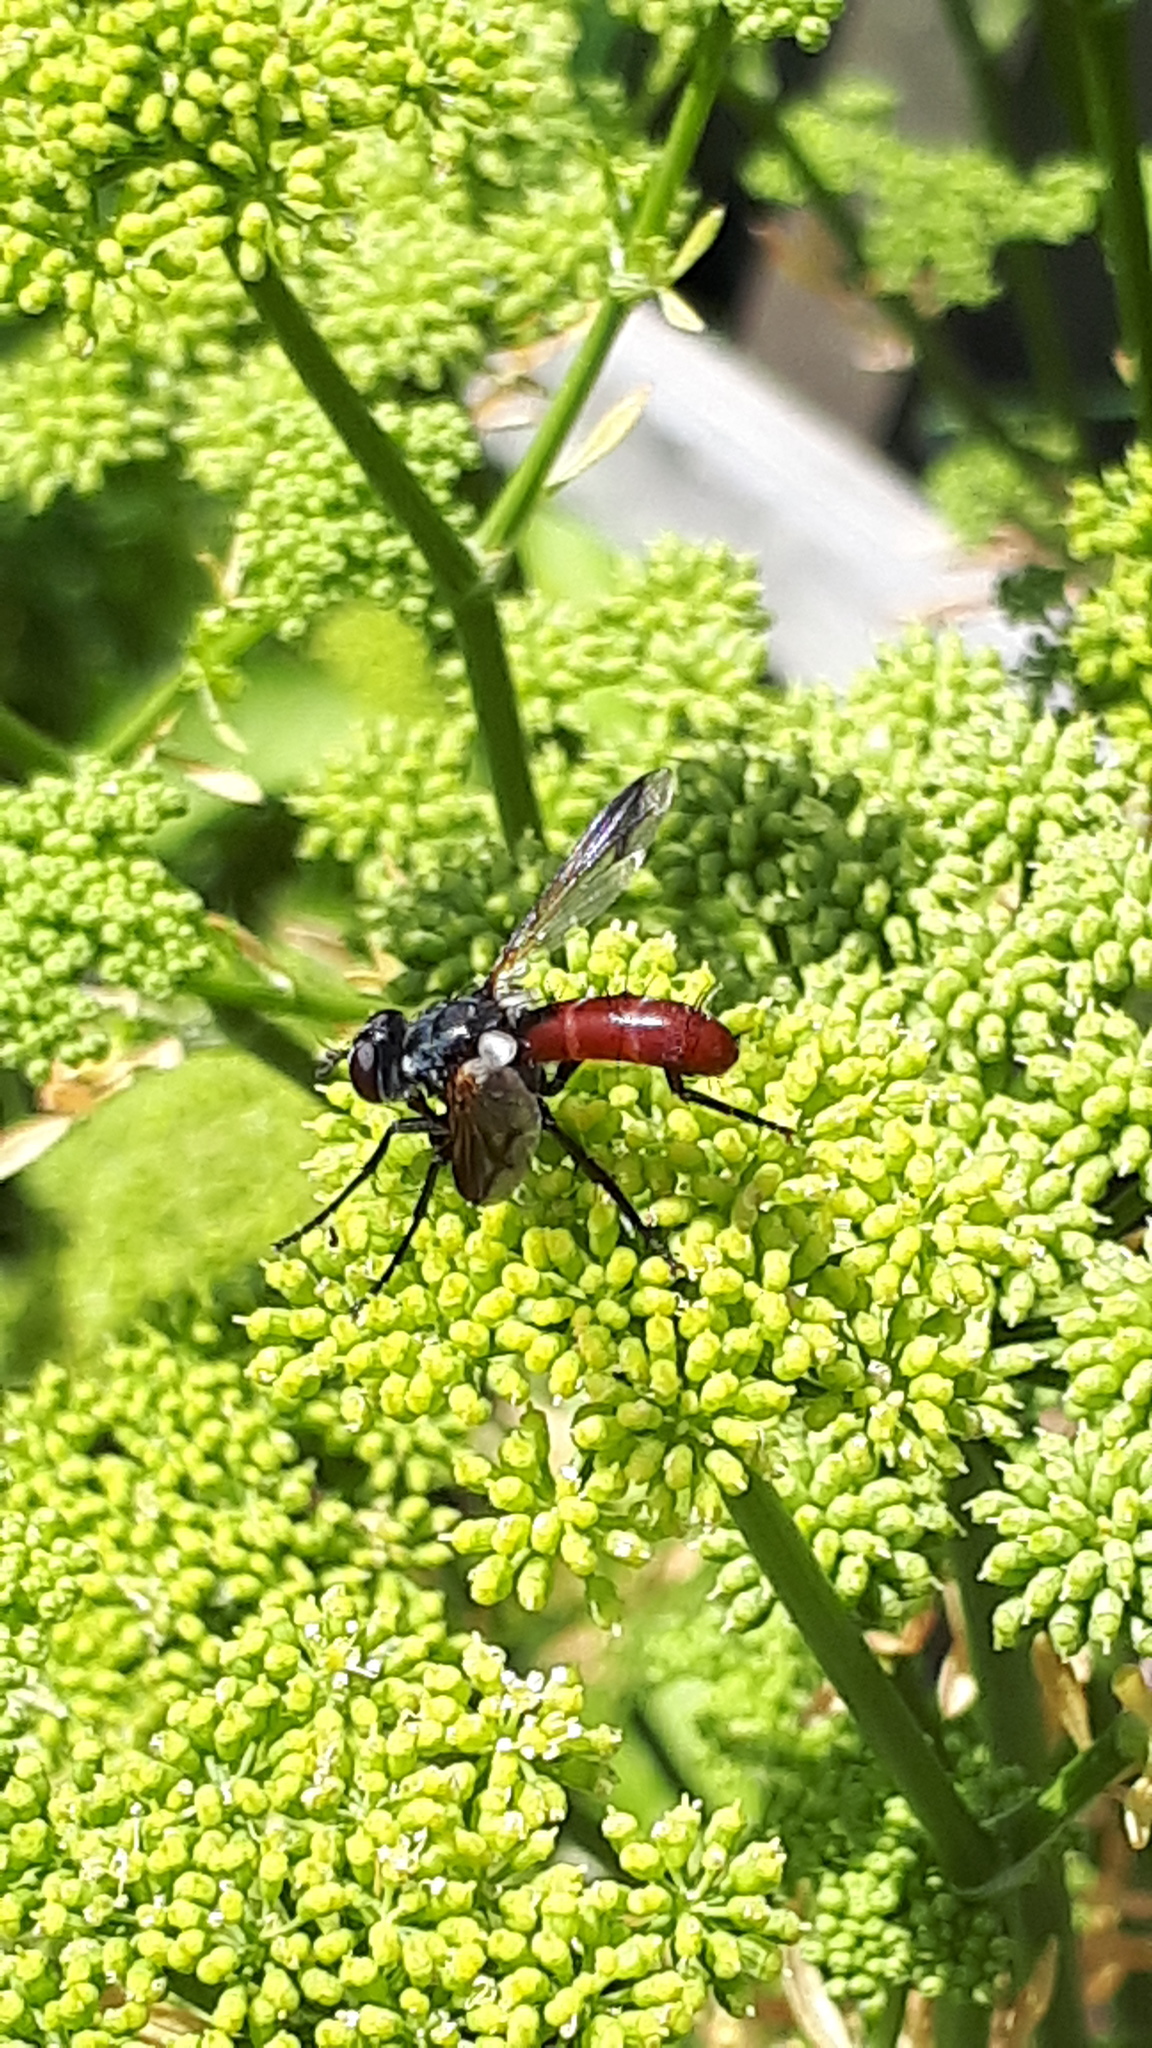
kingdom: Animalia
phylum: Arthropoda
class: Insecta
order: Diptera
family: Tachinidae
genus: Cylindromyia
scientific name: Cylindromyia bicolor
